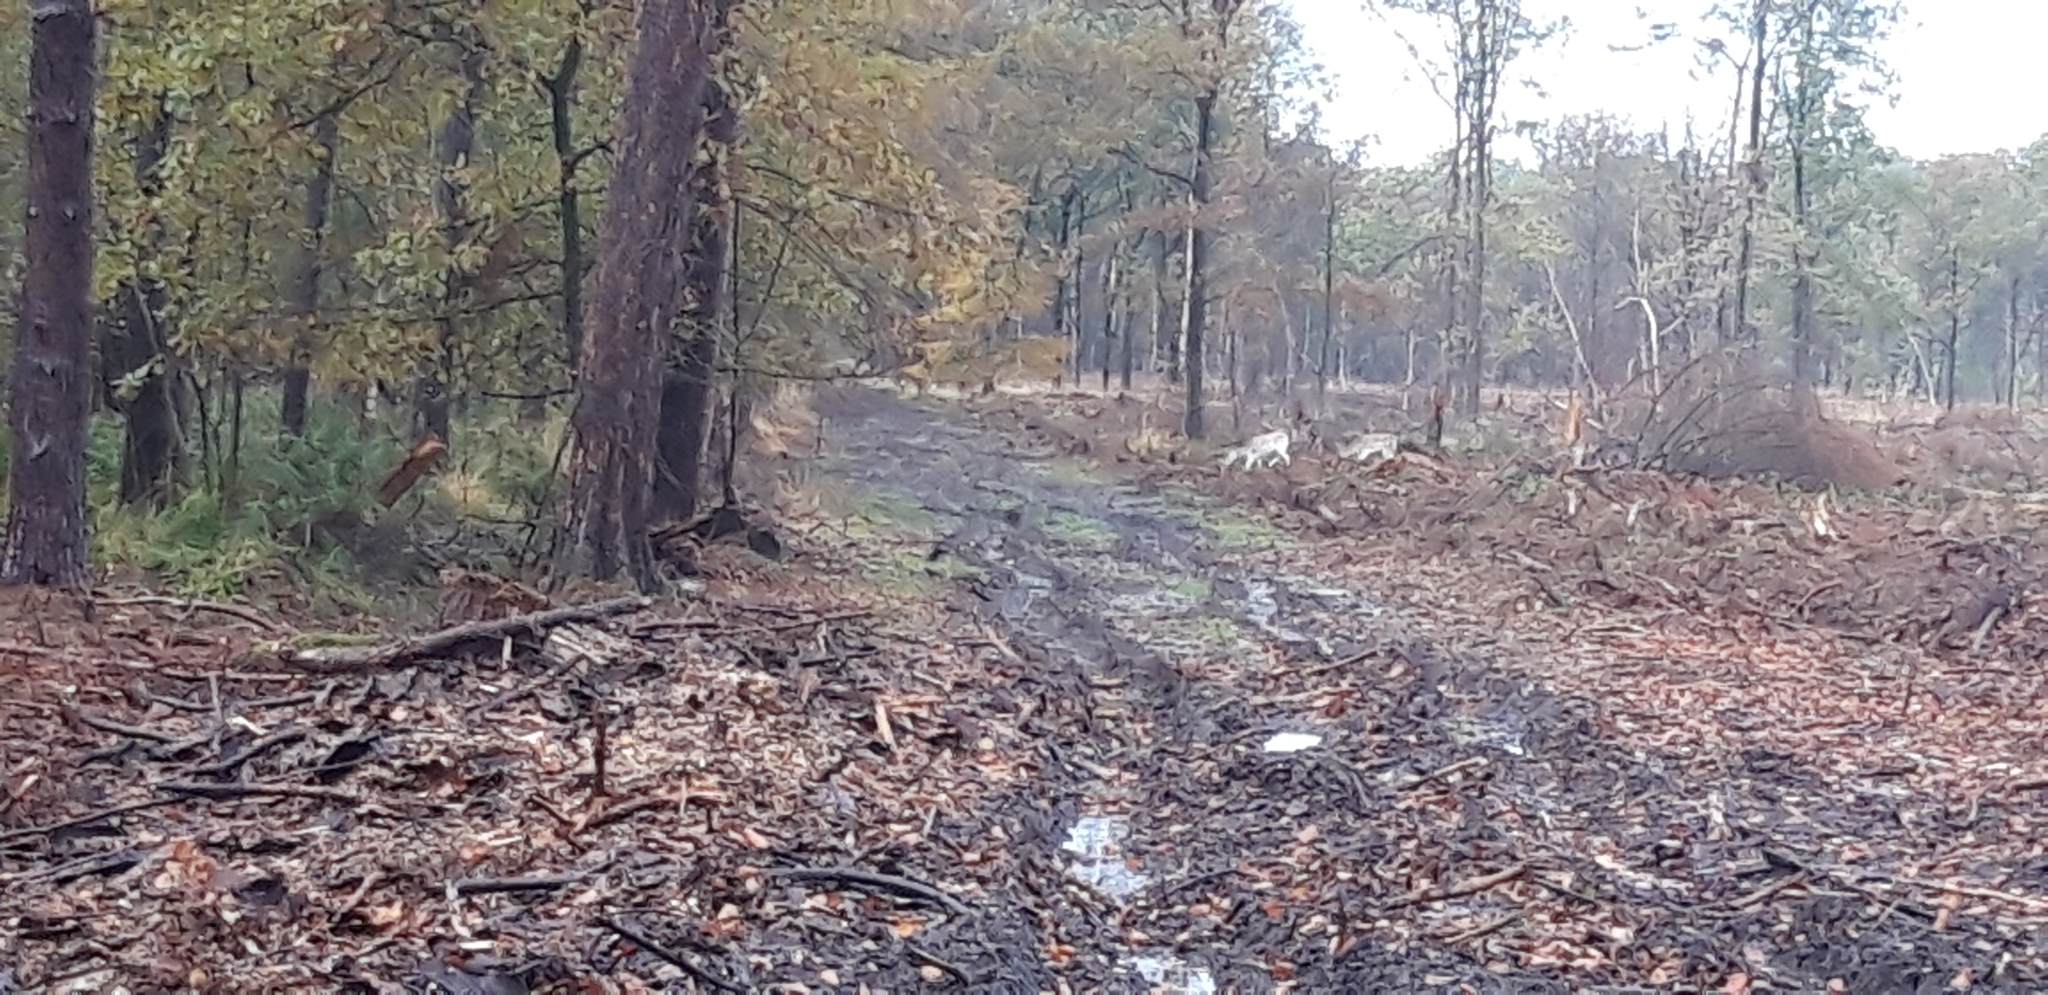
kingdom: Animalia
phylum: Chordata
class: Mammalia
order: Artiodactyla
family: Cervidae
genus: Dama
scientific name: Dama dama
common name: Fallow deer
